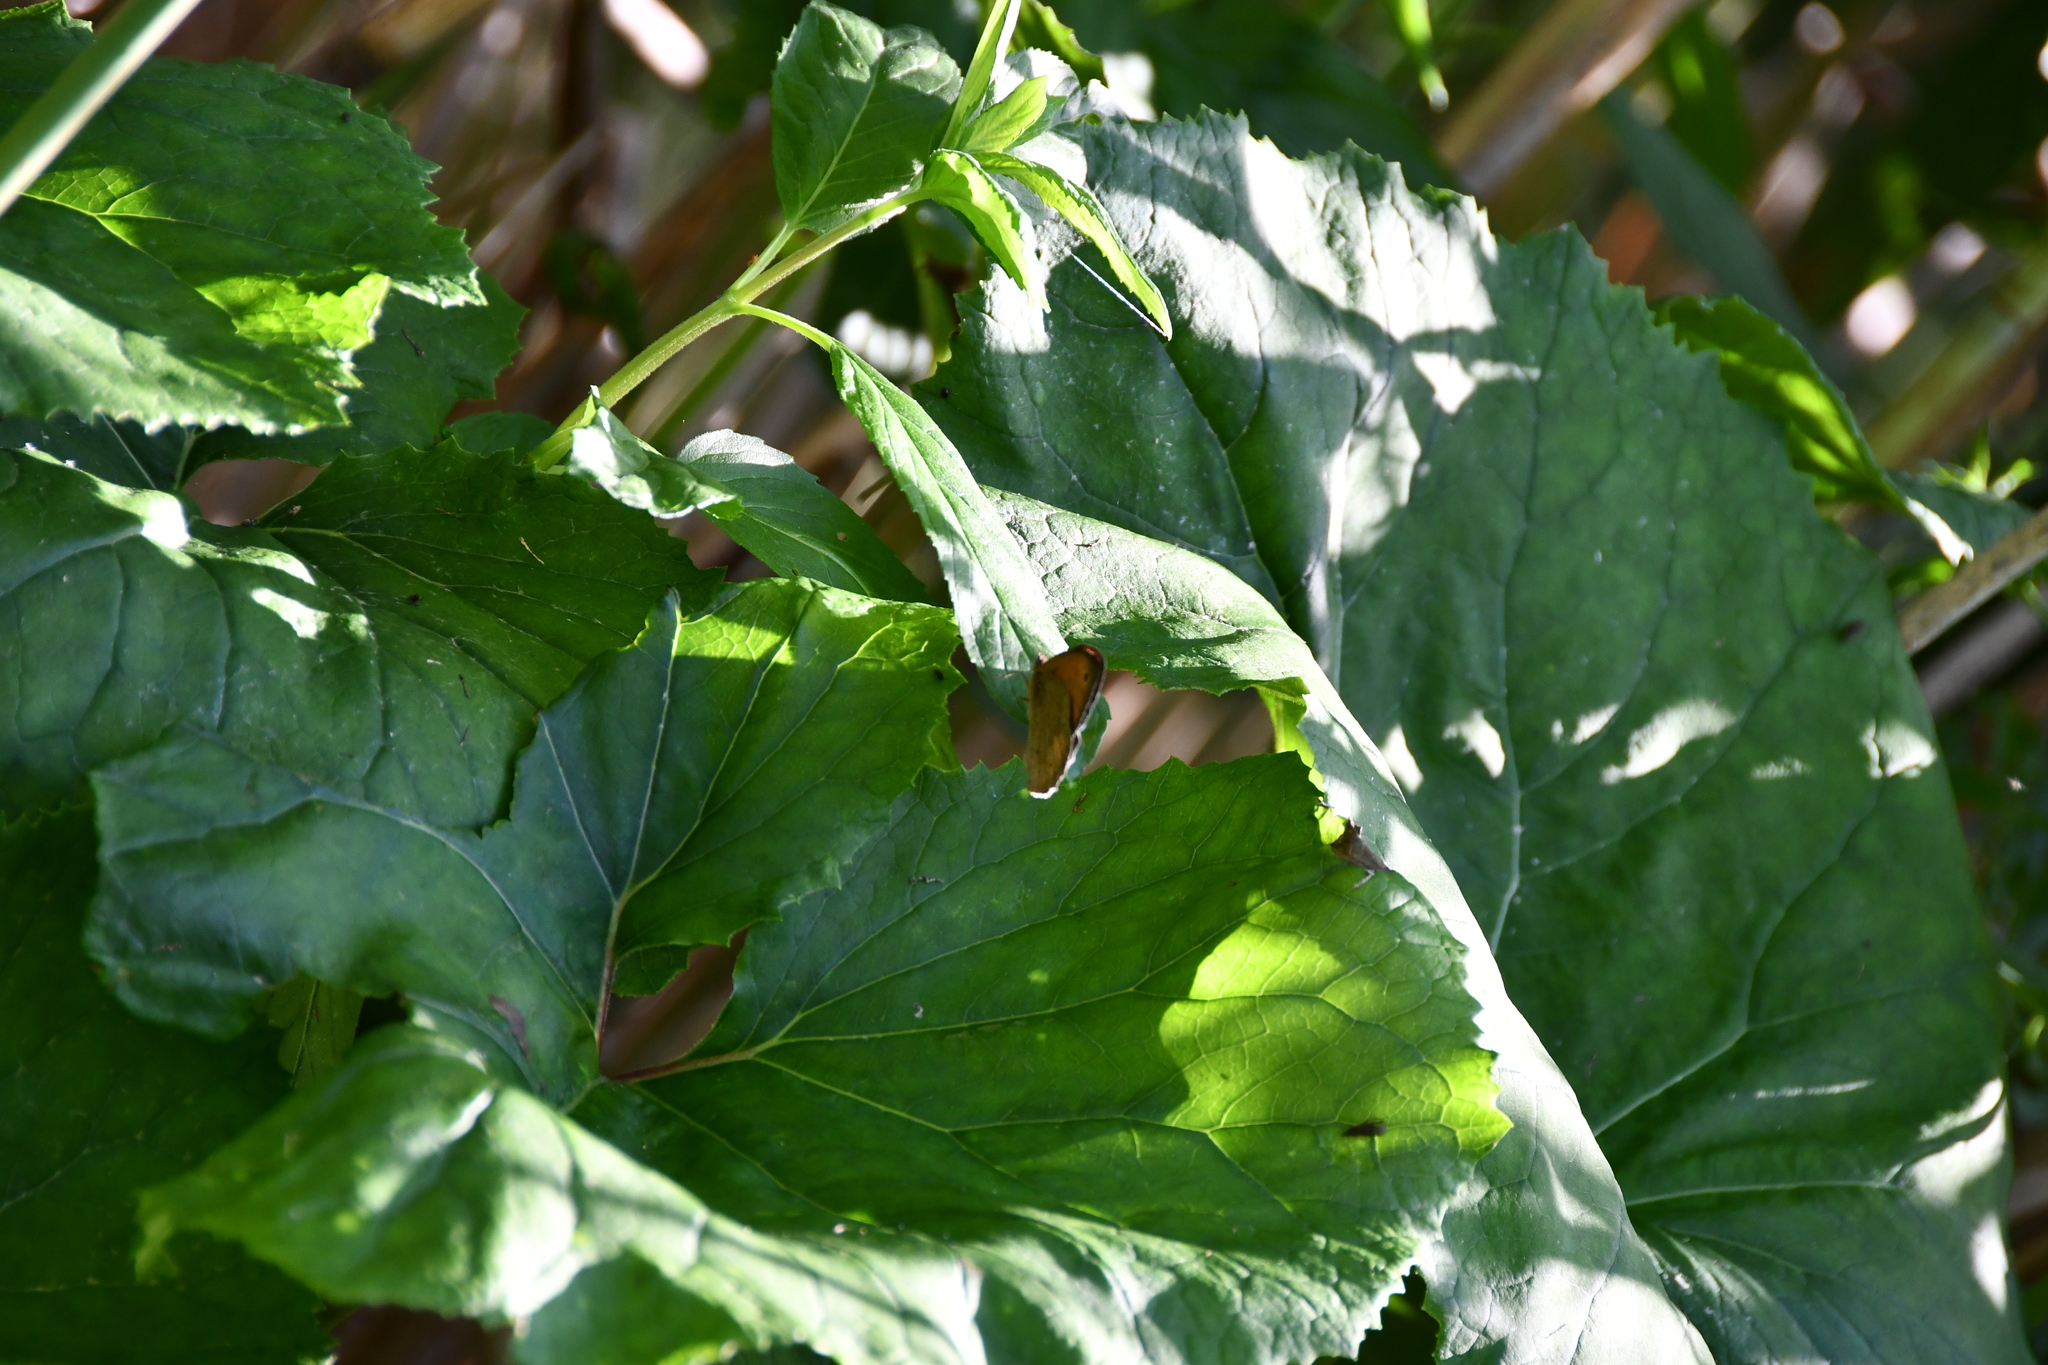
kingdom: Animalia
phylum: Arthropoda
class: Insecta
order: Lepidoptera
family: Nymphalidae
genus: Maniola
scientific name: Maniola jurtina
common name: Meadow brown
